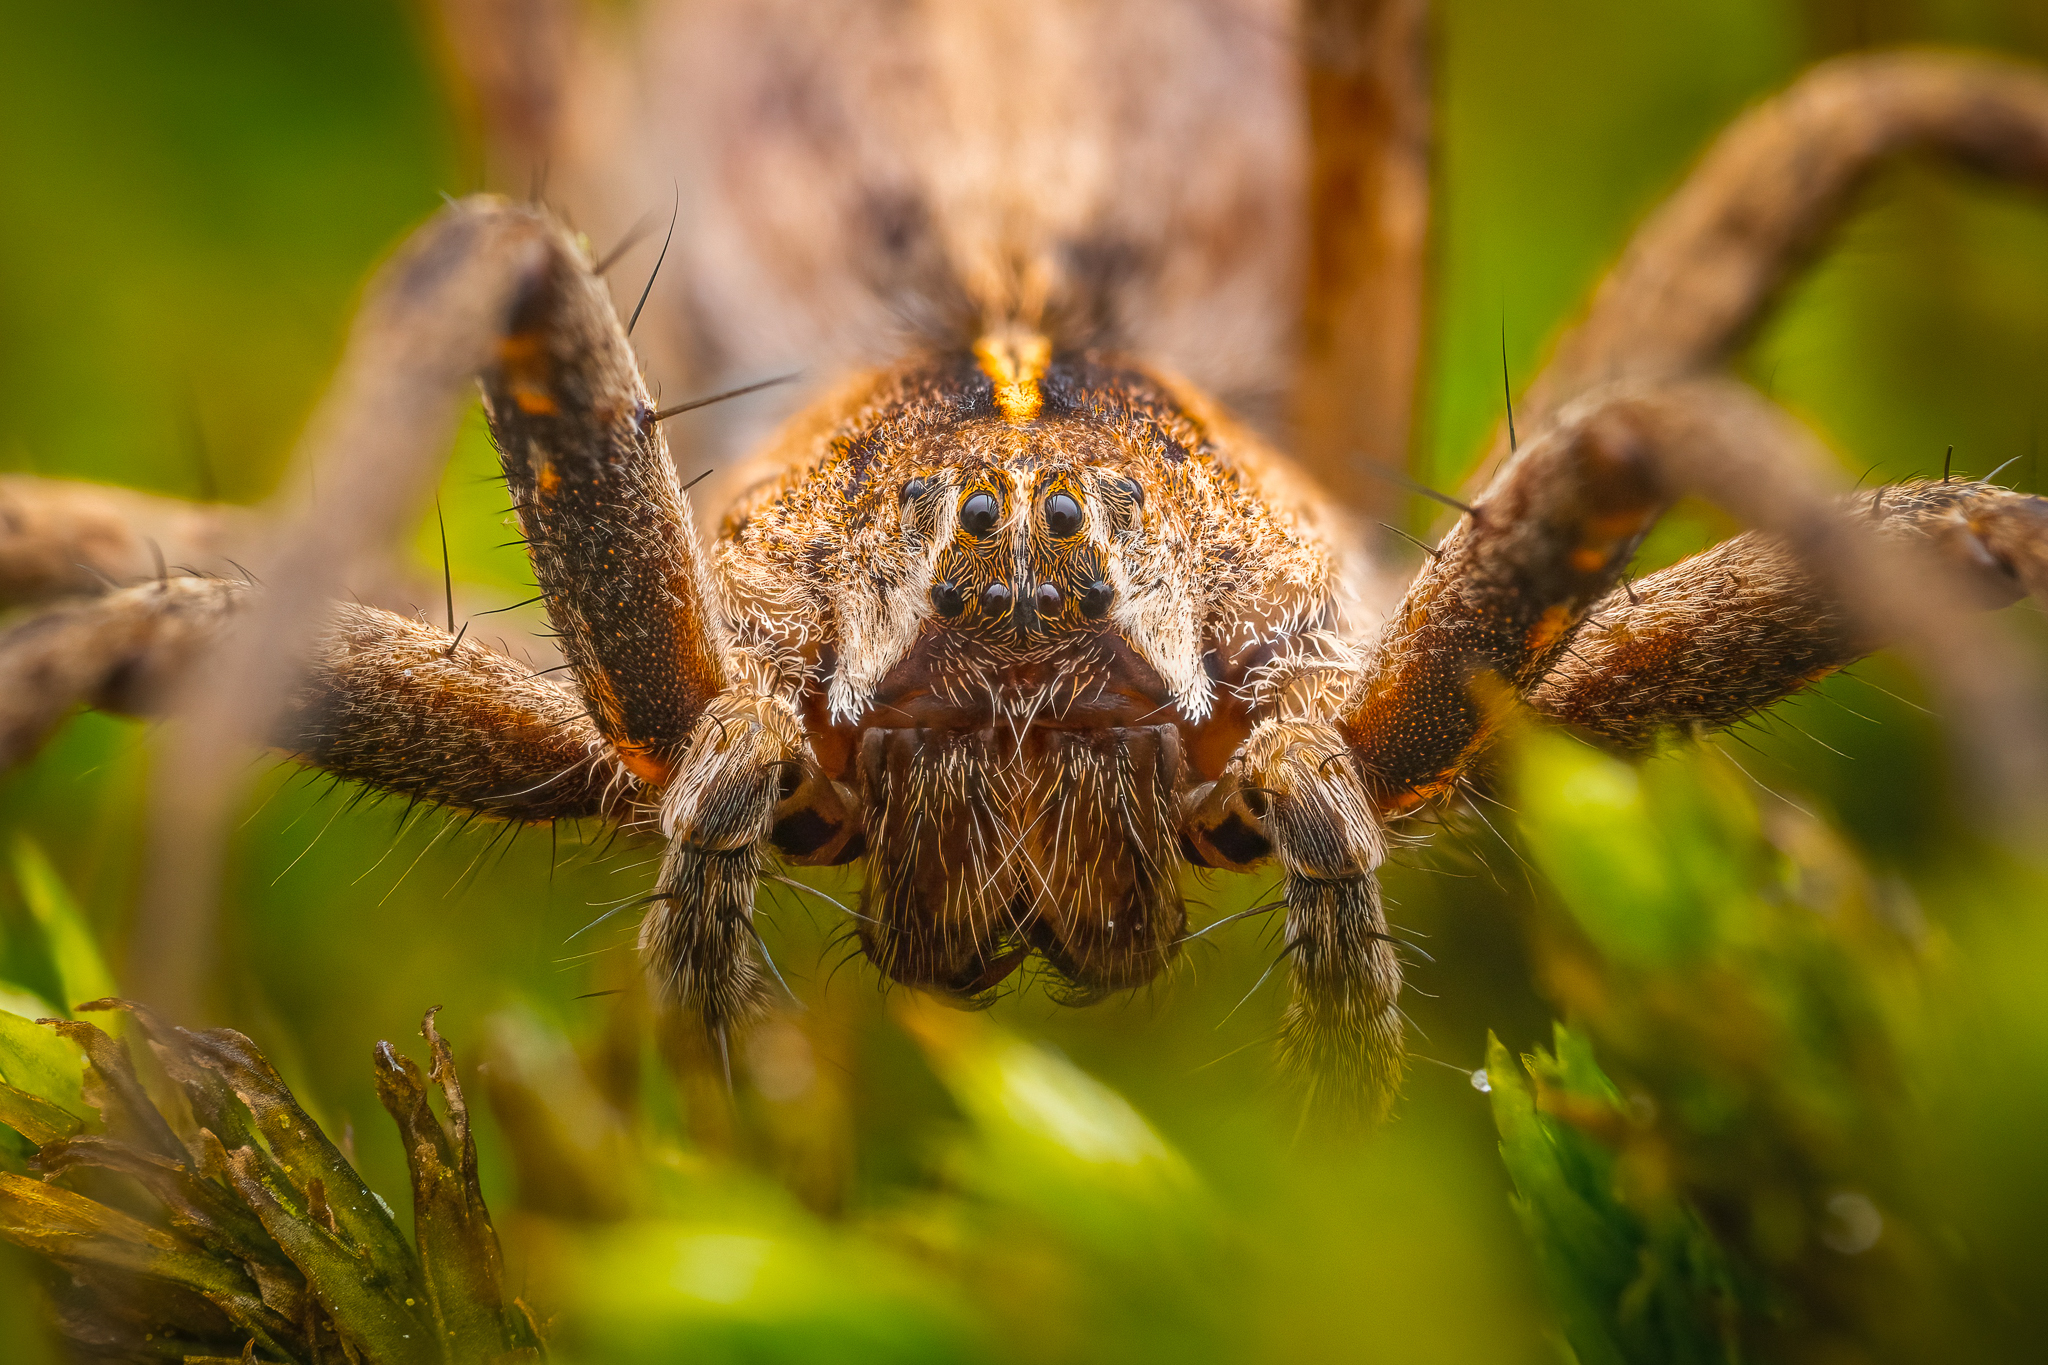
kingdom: Animalia
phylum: Arthropoda
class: Arachnida
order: Araneae
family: Pisauridae
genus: Pisaura
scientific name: Pisaura mirabilis
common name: Tent spider
